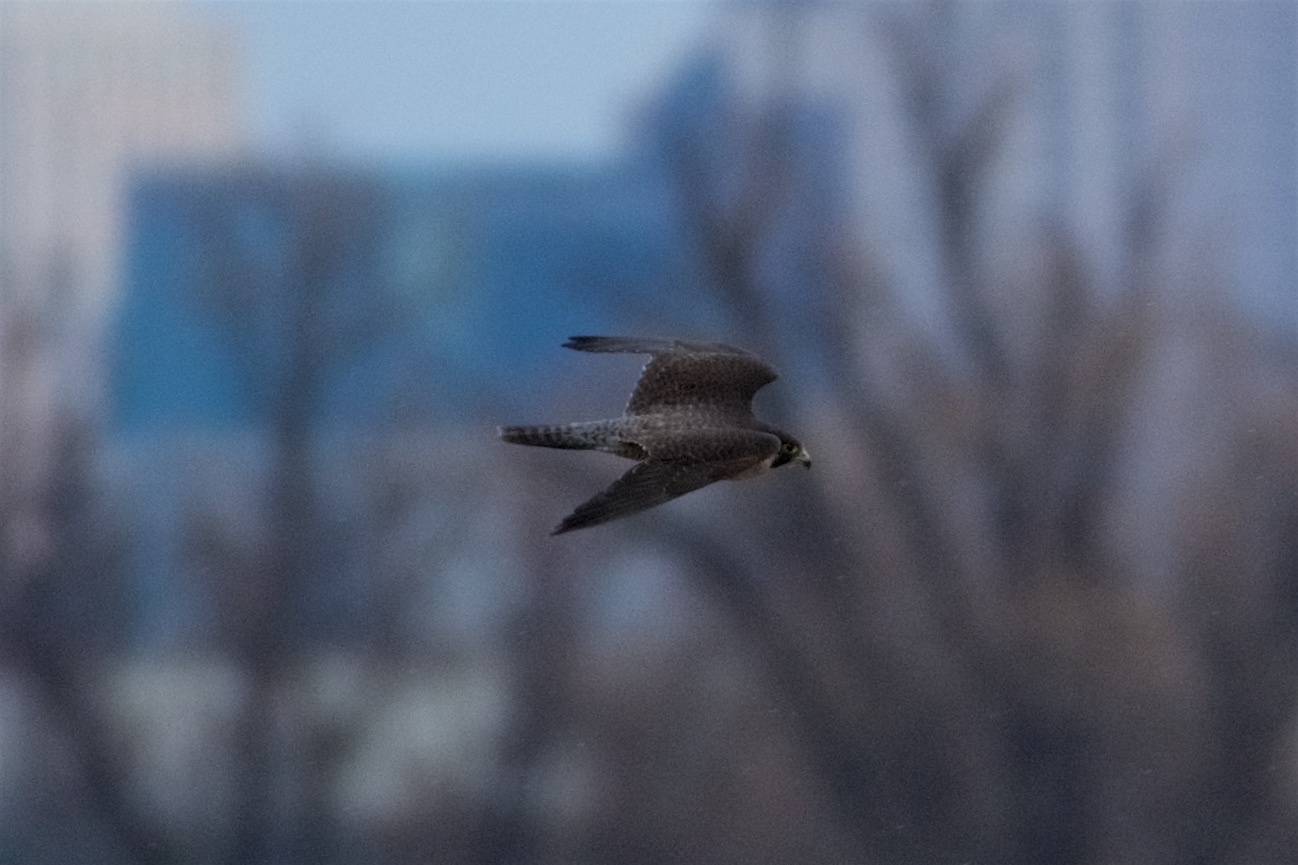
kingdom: Animalia
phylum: Chordata
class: Aves
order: Falconiformes
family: Falconidae
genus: Falco
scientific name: Falco peregrinus
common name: Peregrine falcon
